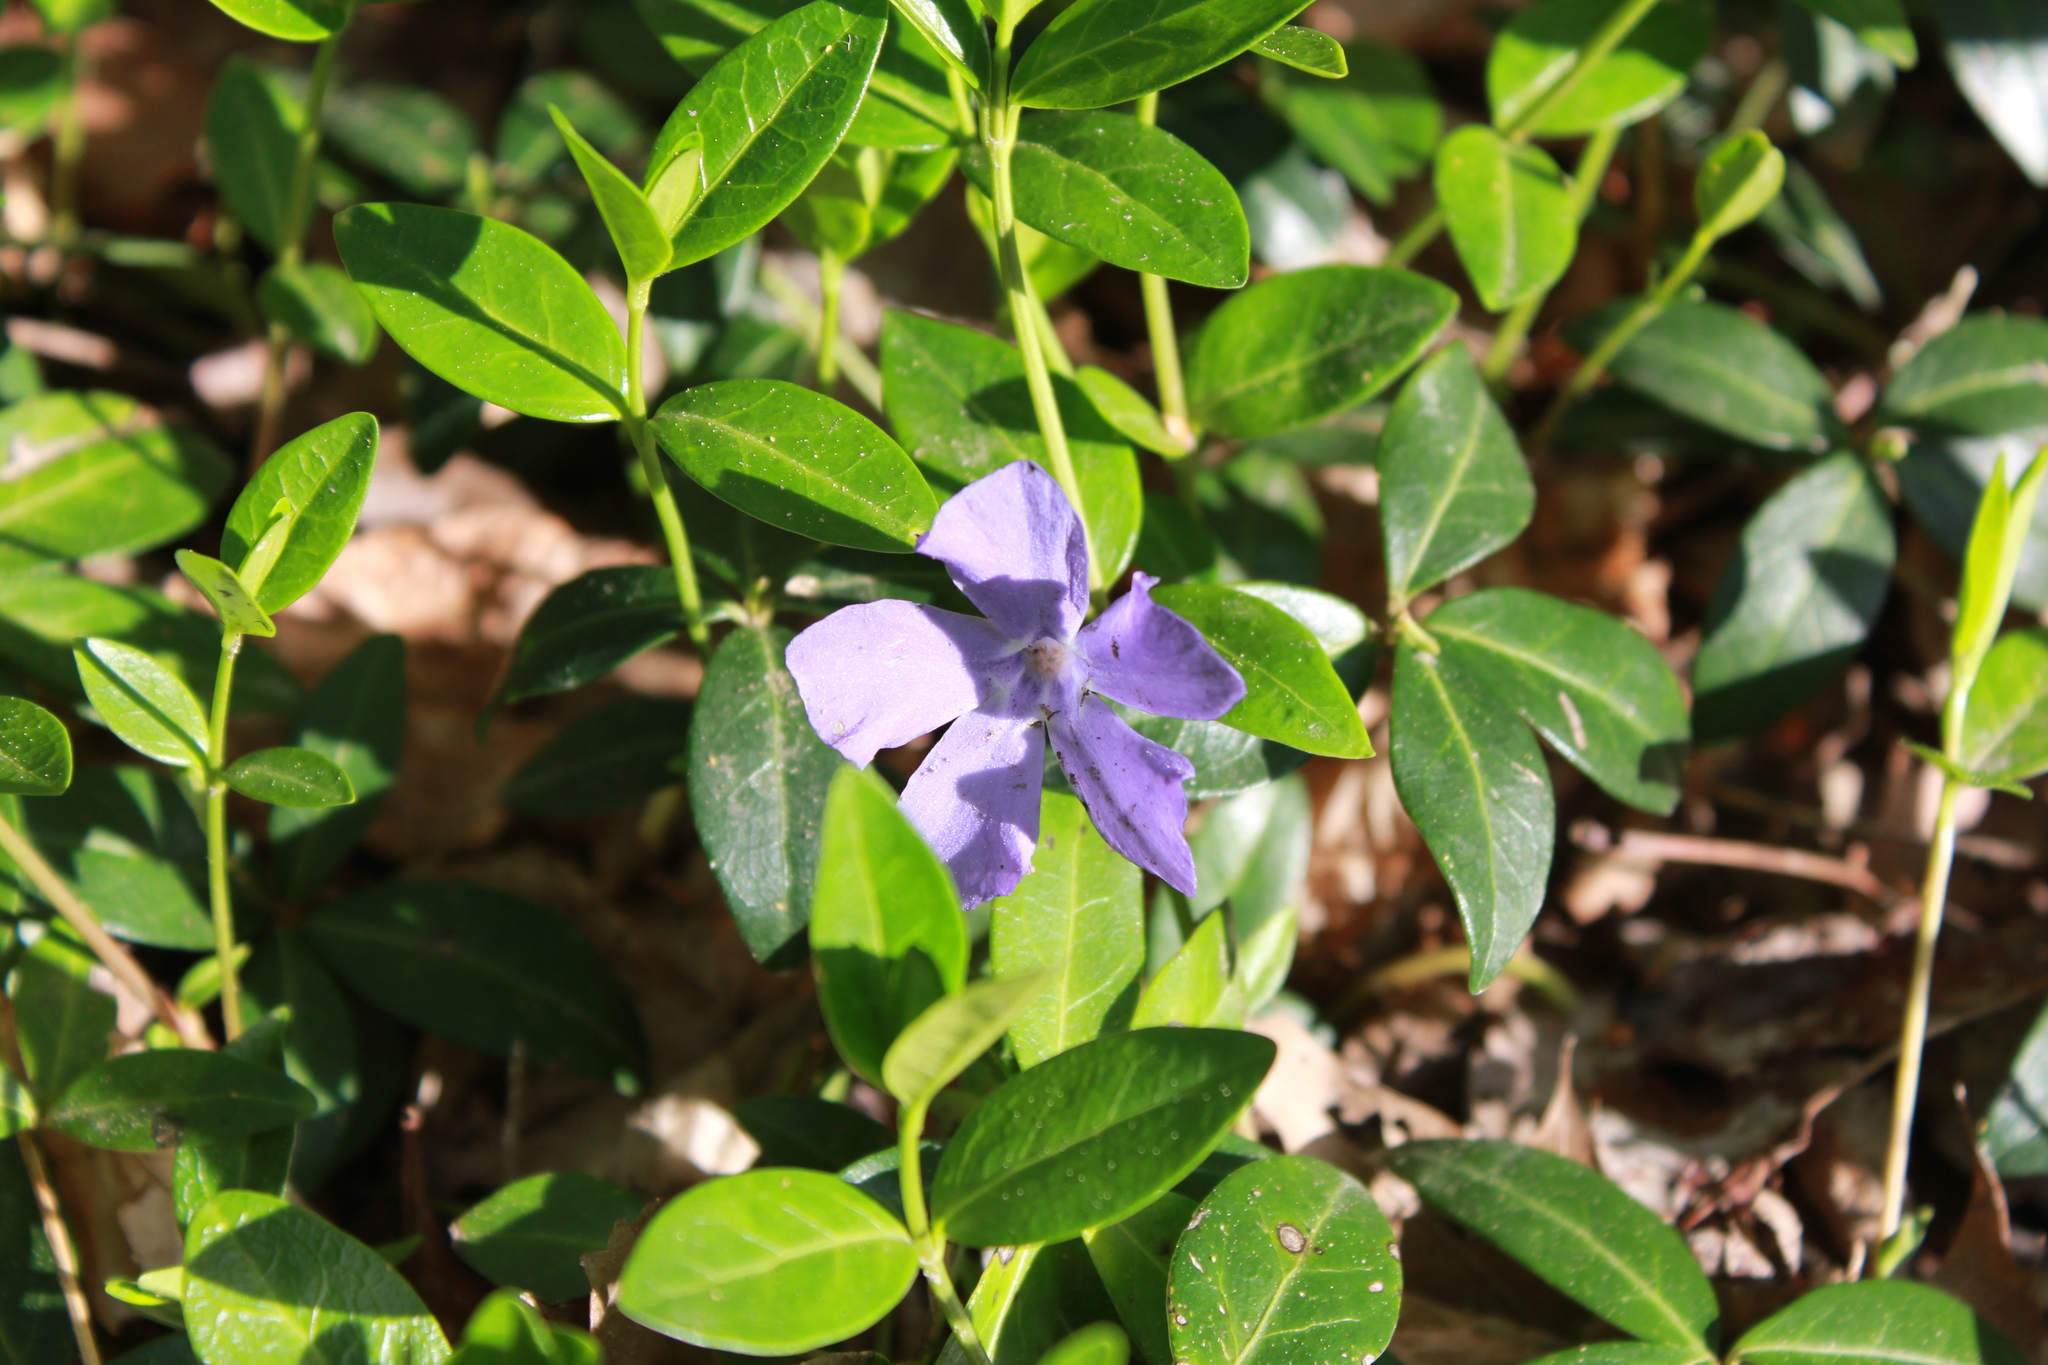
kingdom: Plantae
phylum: Tracheophyta
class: Magnoliopsida
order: Gentianales
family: Apocynaceae
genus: Vinca
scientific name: Vinca minor
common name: Lesser periwinkle
